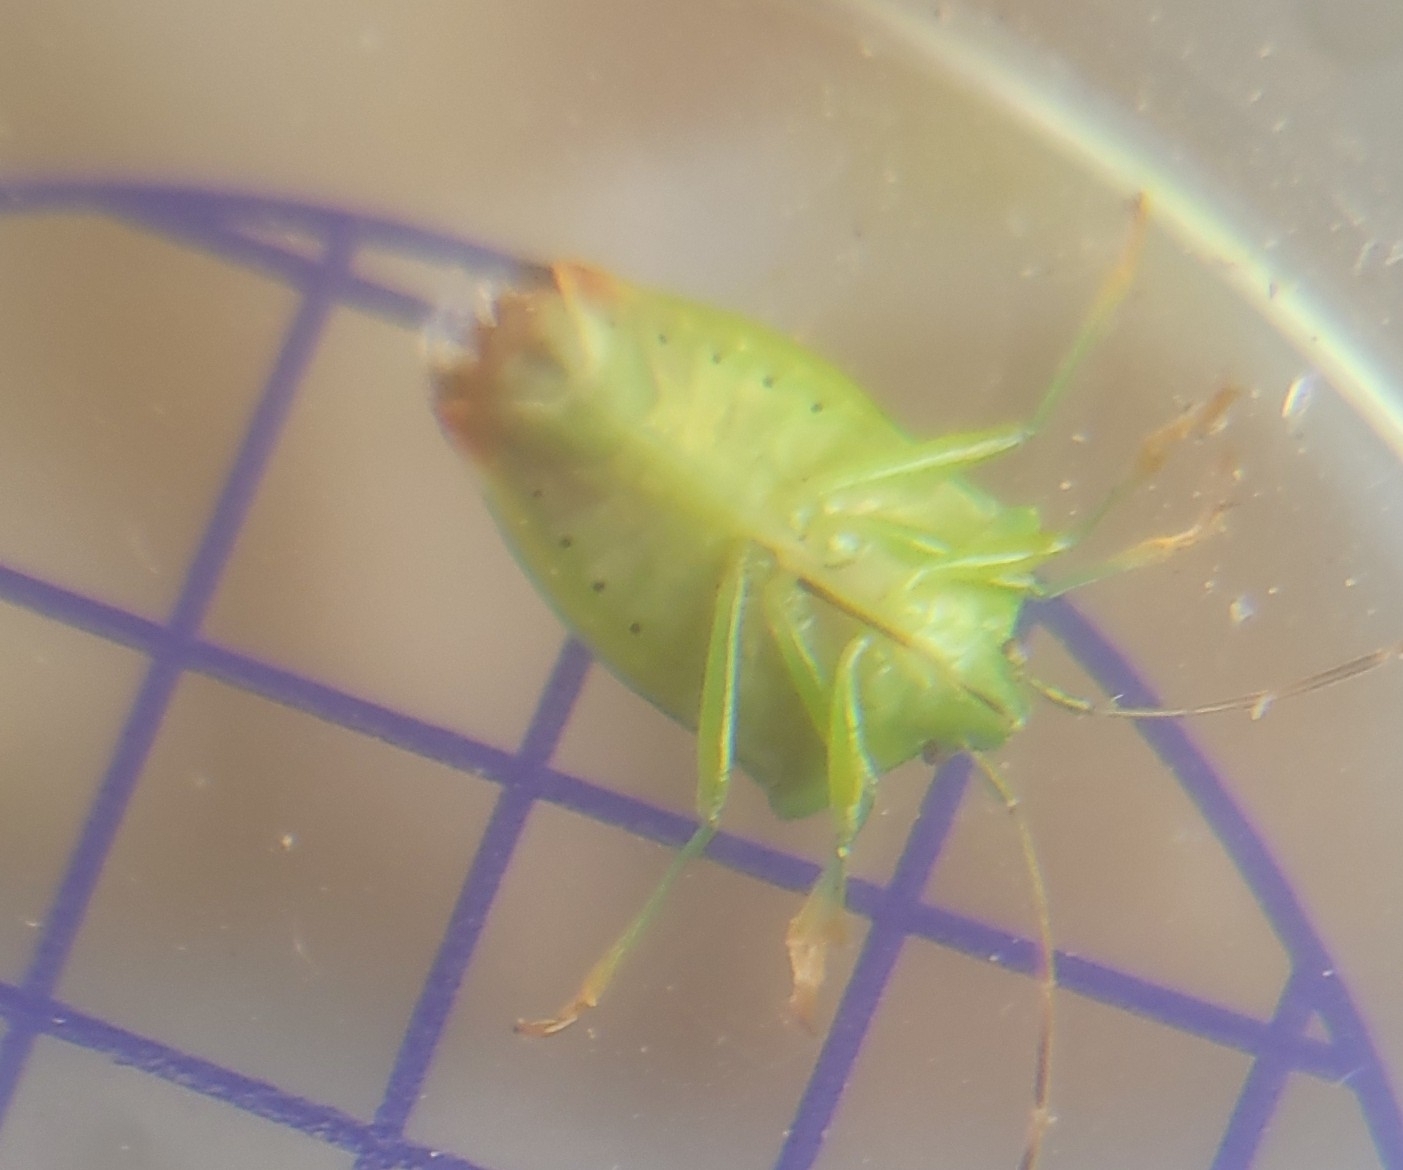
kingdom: Animalia
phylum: Arthropoda
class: Insecta
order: Hemiptera
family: Acanthosomatidae
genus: Elasmostethus
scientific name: Elasmostethus
